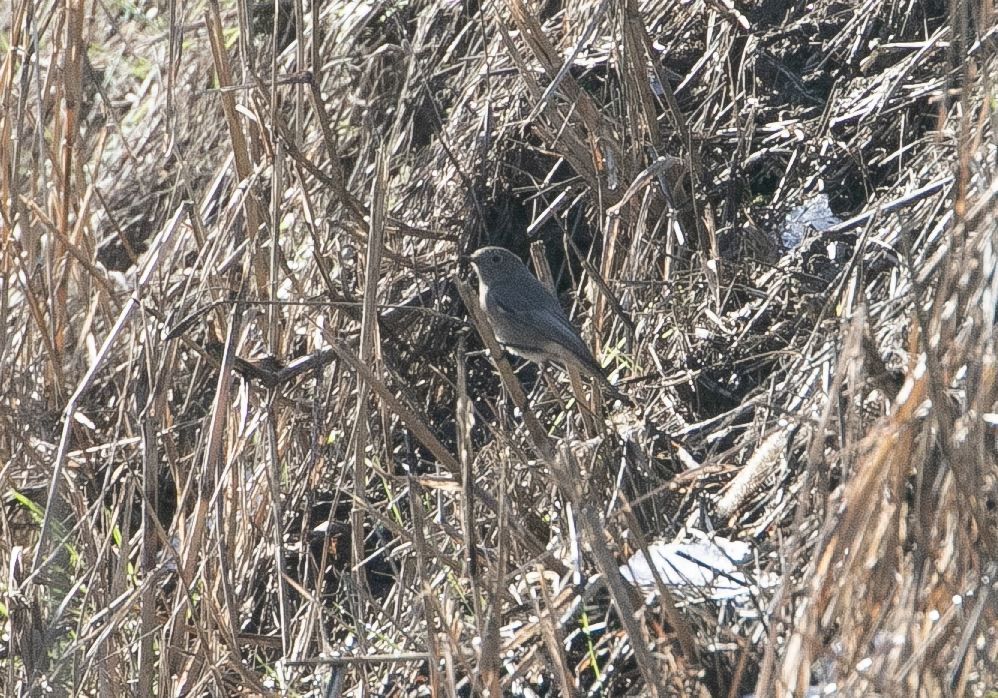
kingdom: Animalia
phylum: Chordata
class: Aves
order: Passeriformes
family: Muscicapidae
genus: Phoenicurus
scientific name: Phoenicurus ochruros
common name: Black redstart
